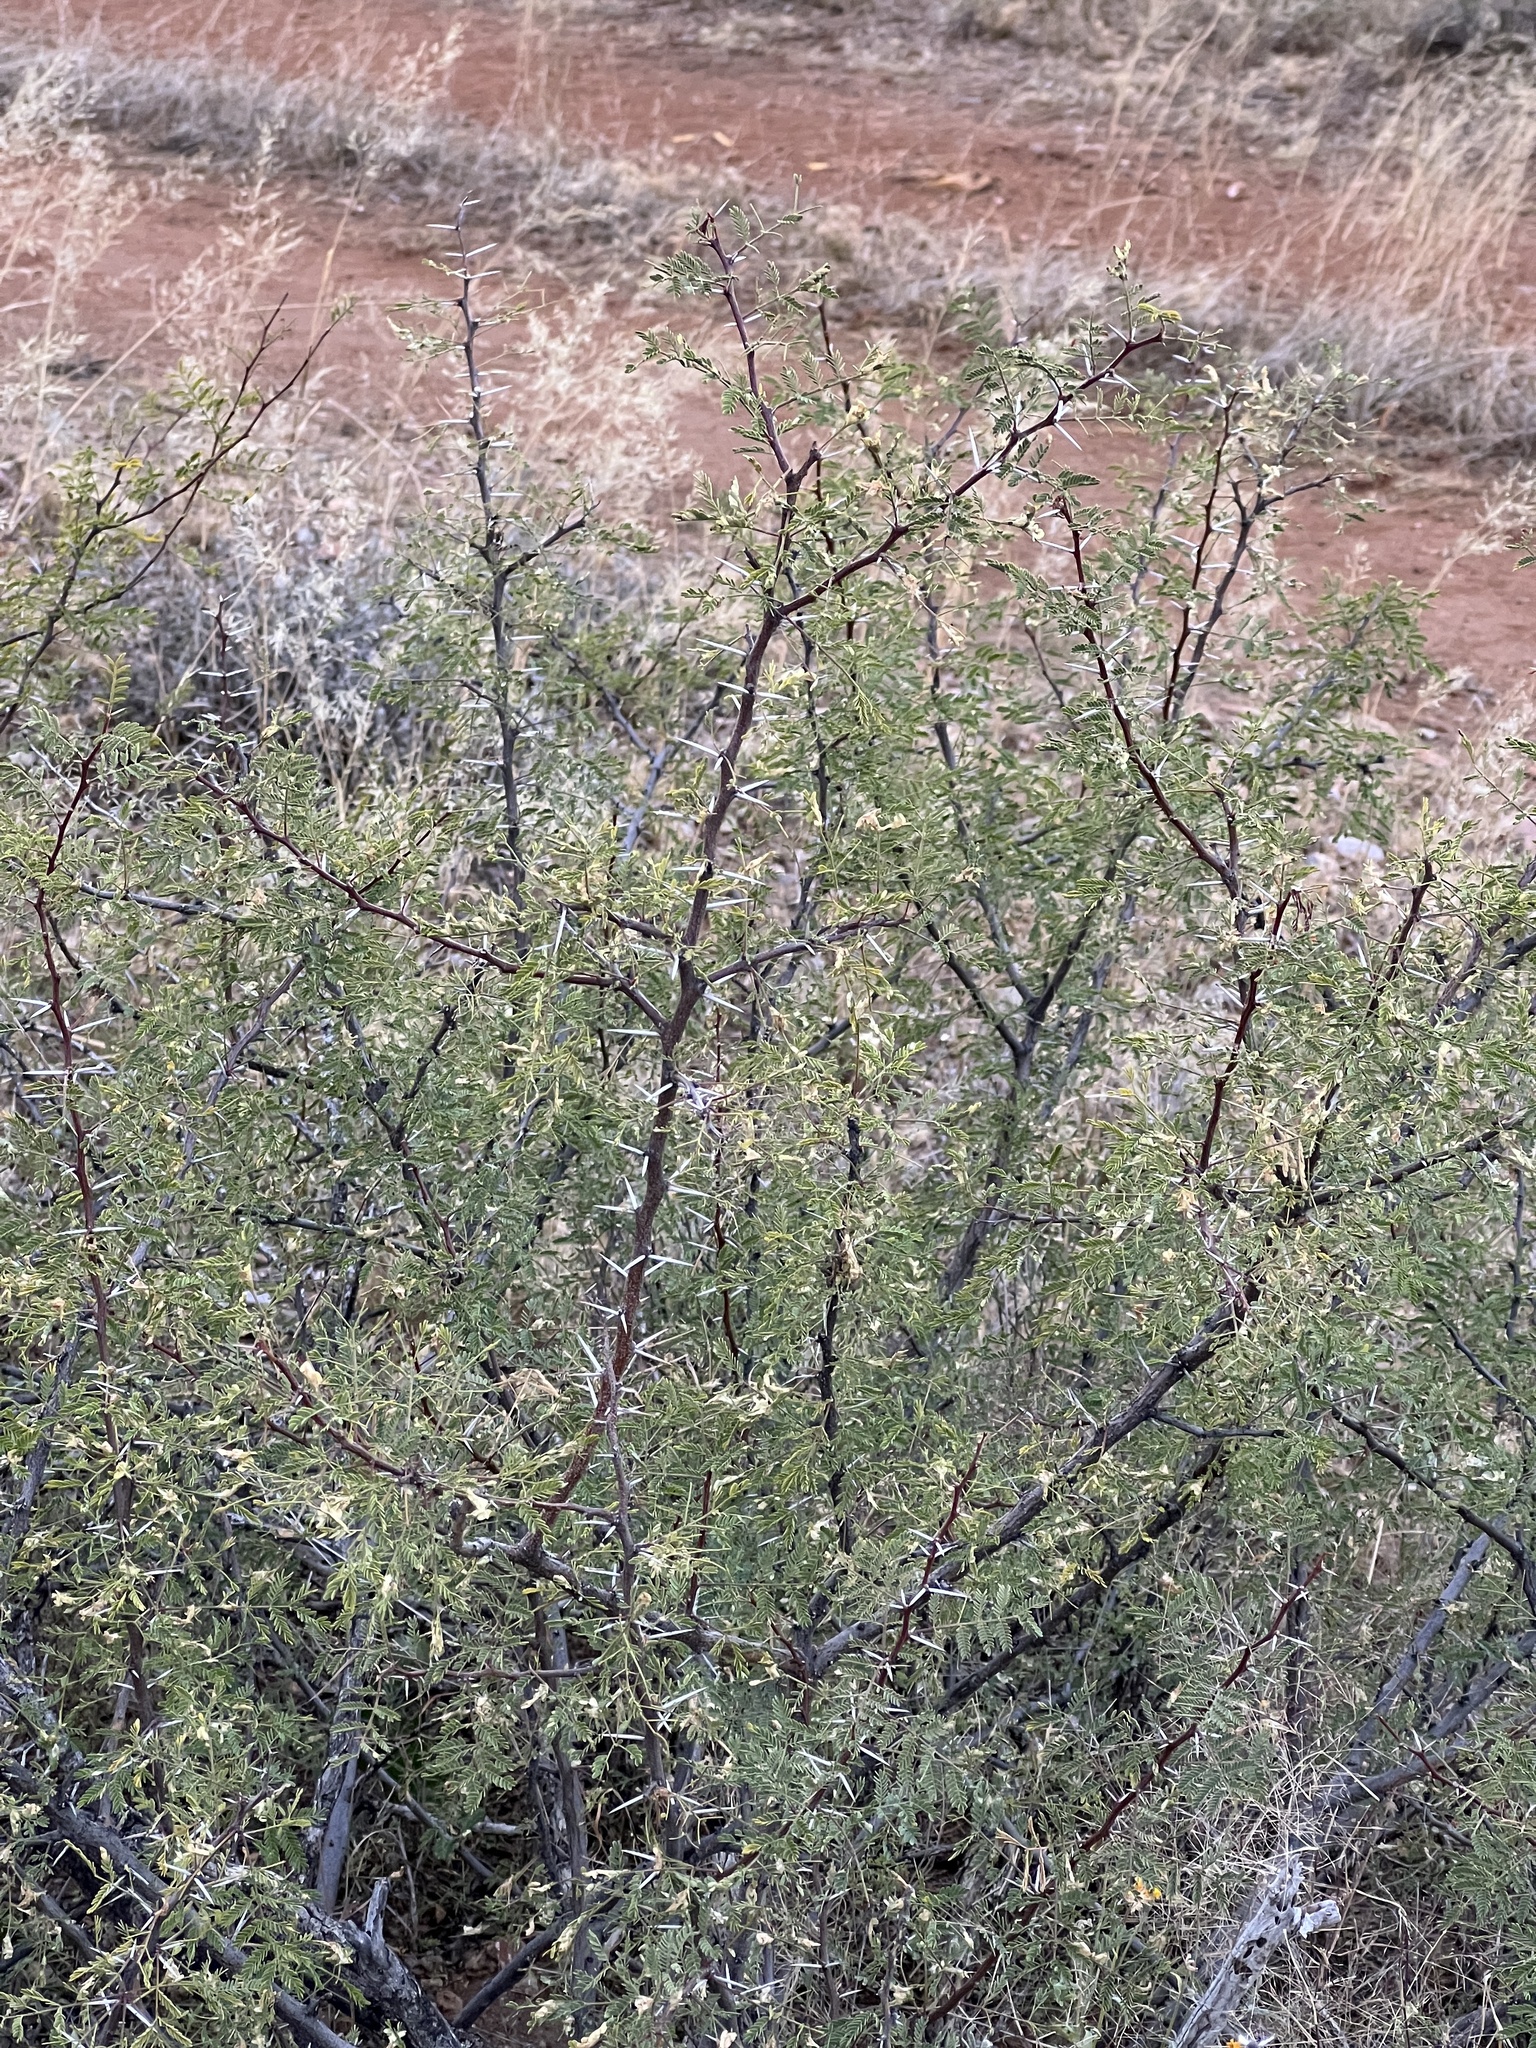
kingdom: Plantae
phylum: Tracheophyta
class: Magnoliopsida
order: Fabales
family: Fabaceae
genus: Vachellia
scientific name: Vachellia constricta
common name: Mescat acacia
